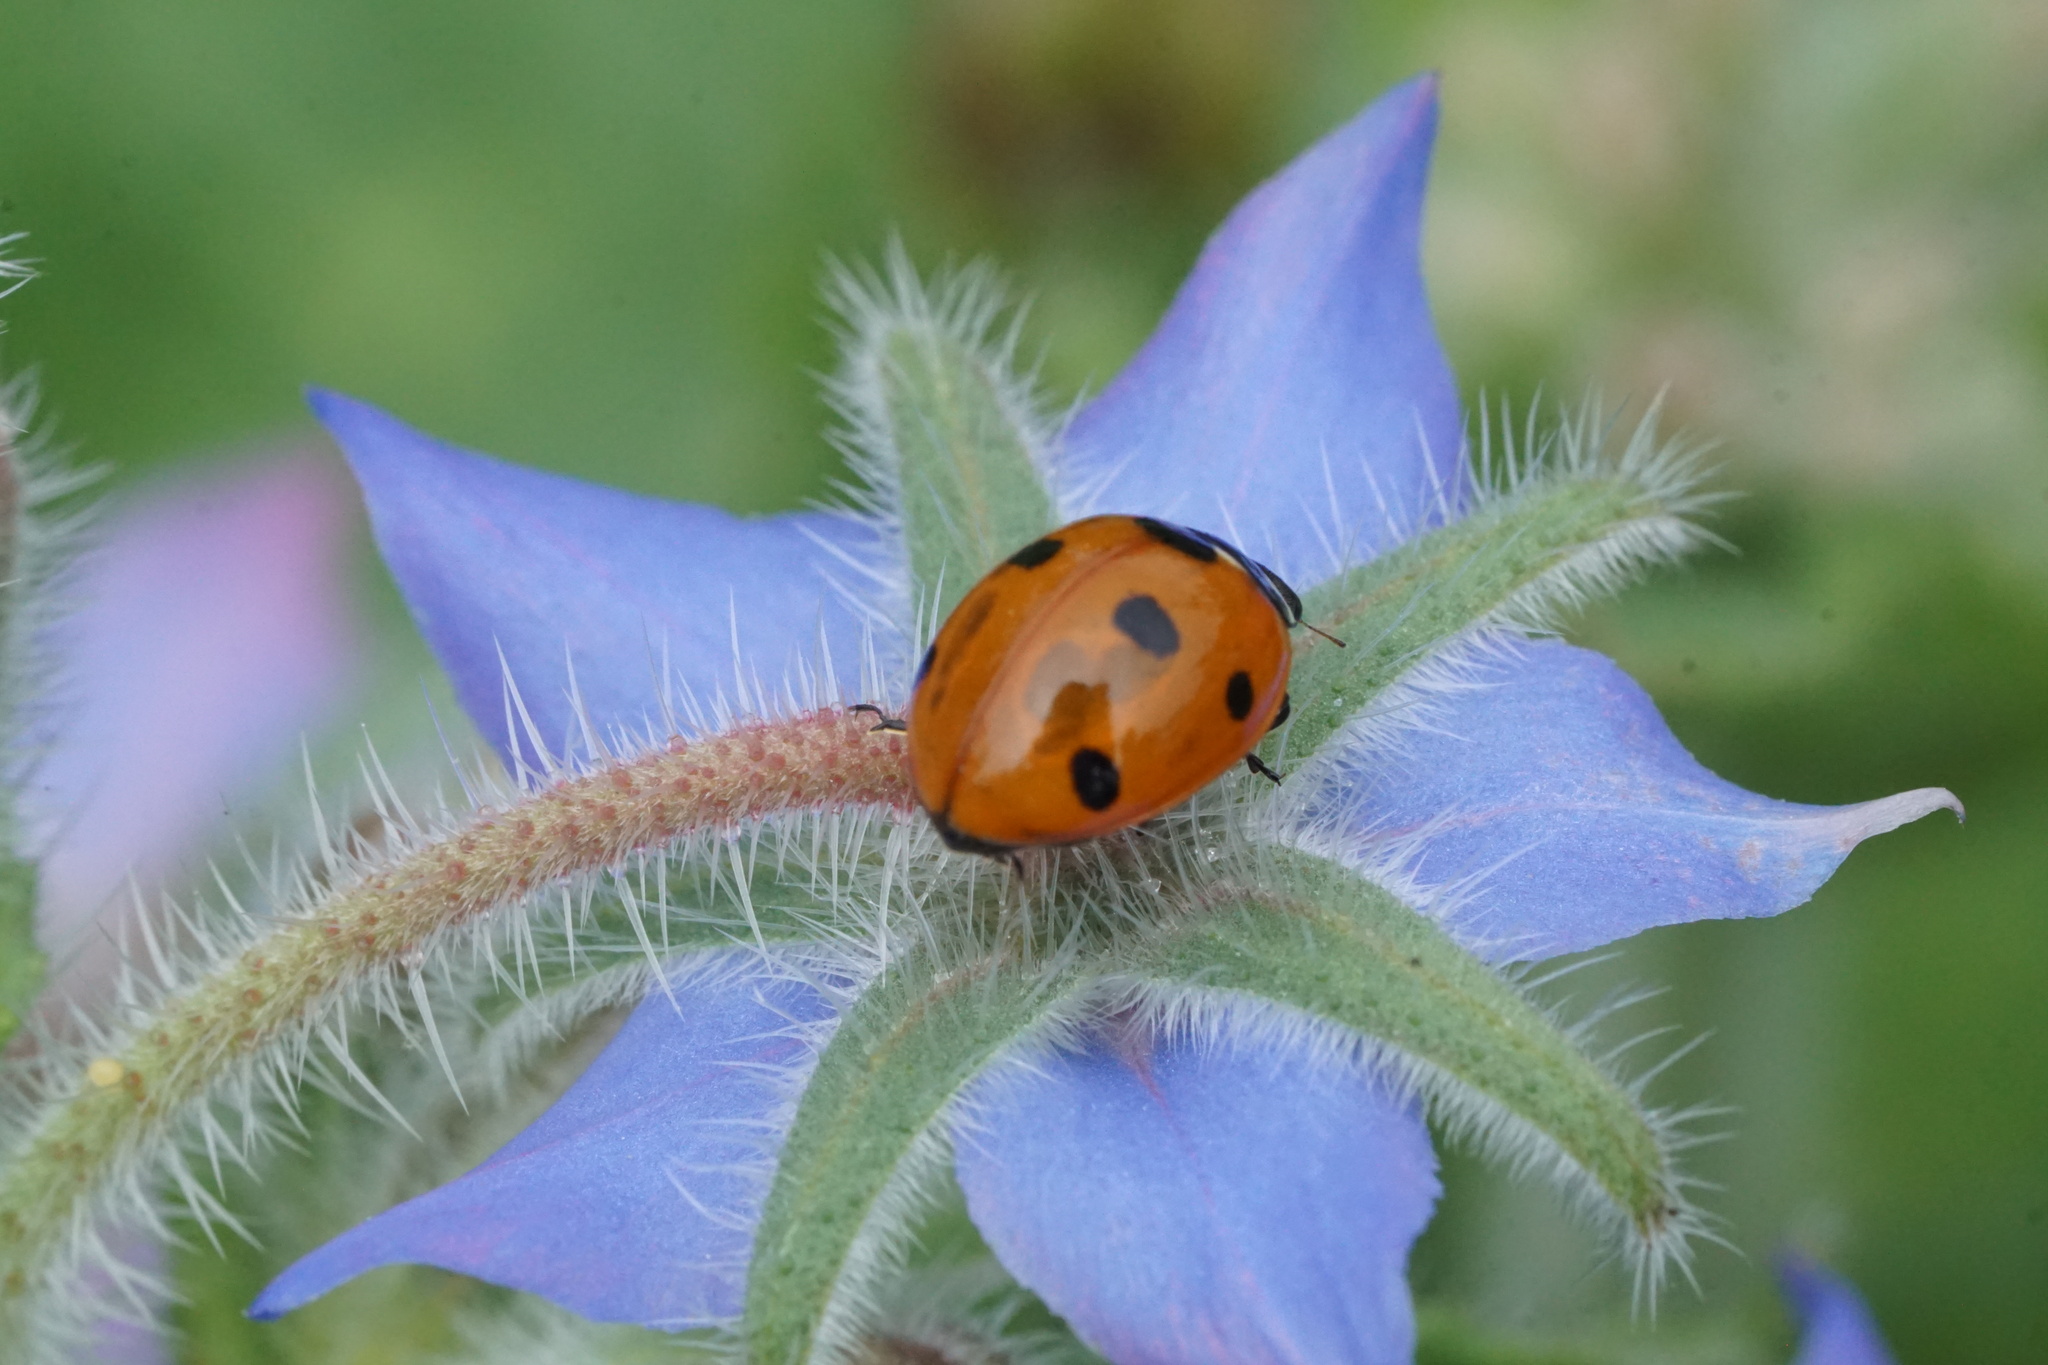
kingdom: Animalia
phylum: Arthropoda
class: Insecta
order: Coleoptera
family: Coccinellidae
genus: Coccinella
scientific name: Coccinella septempunctata
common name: Sevenspotted lady beetle
